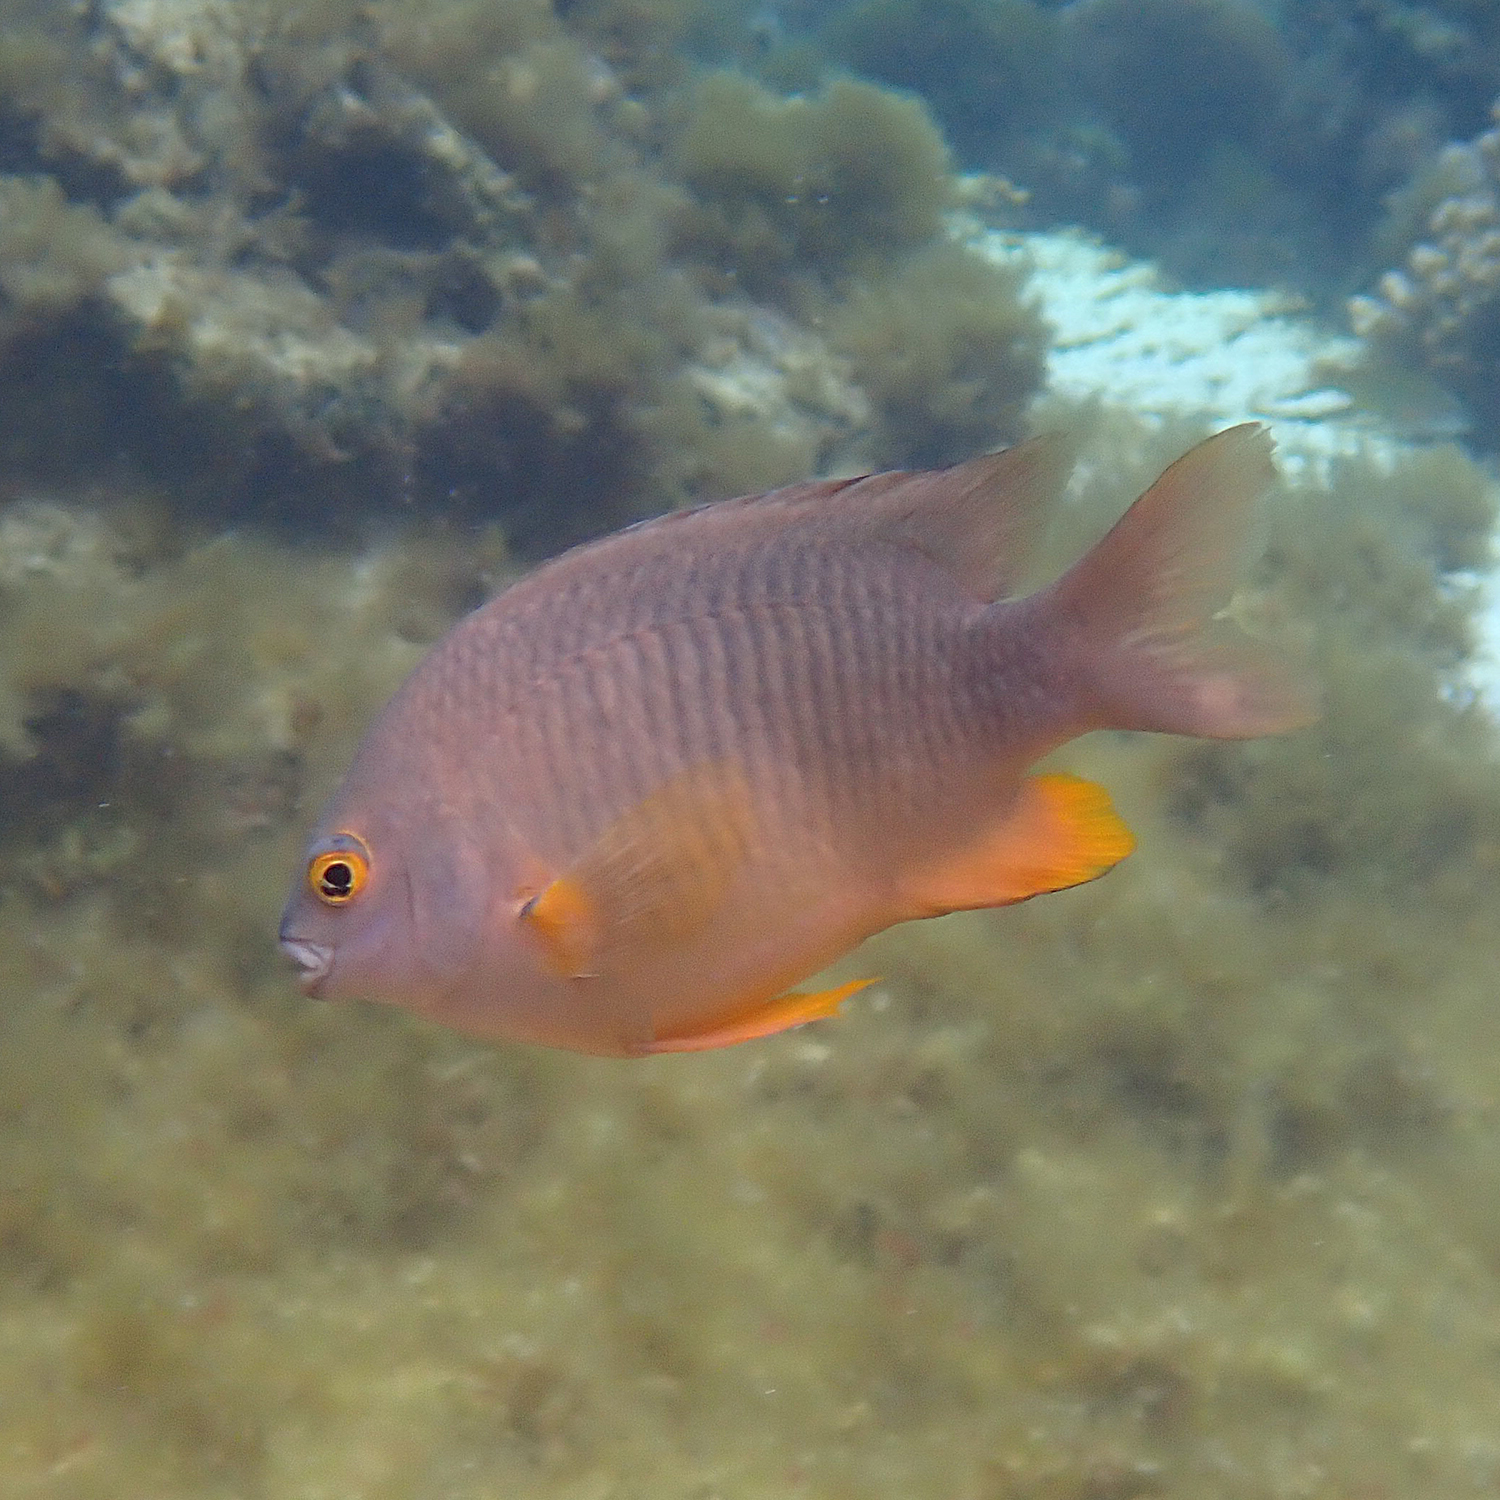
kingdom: Animalia
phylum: Chordata
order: Perciformes
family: Pomacentridae
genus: Stegastes
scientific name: Stegastes gascoynei
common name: Coral sea gregory
